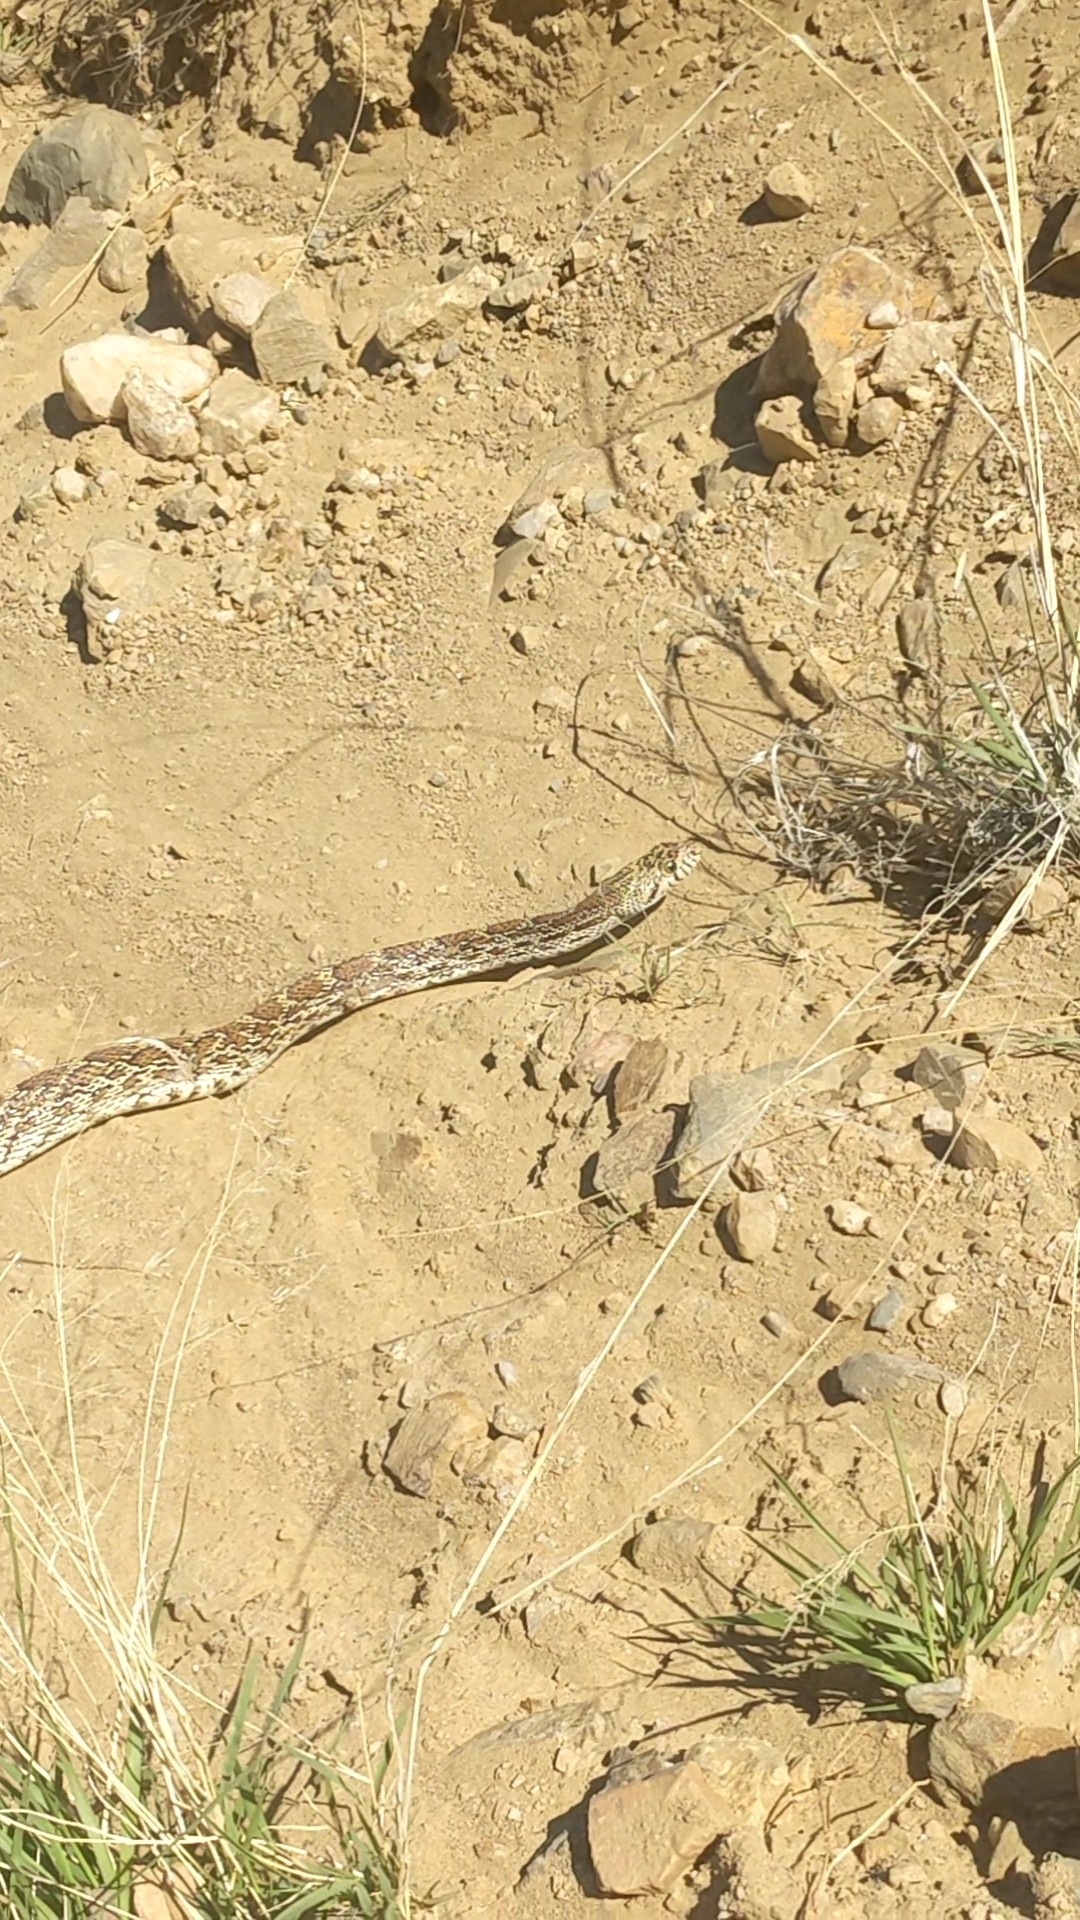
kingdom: Animalia
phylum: Chordata
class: Squamata
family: Colubridae
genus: Pituophis
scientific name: Pituophis catenifer
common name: Gopher snake
